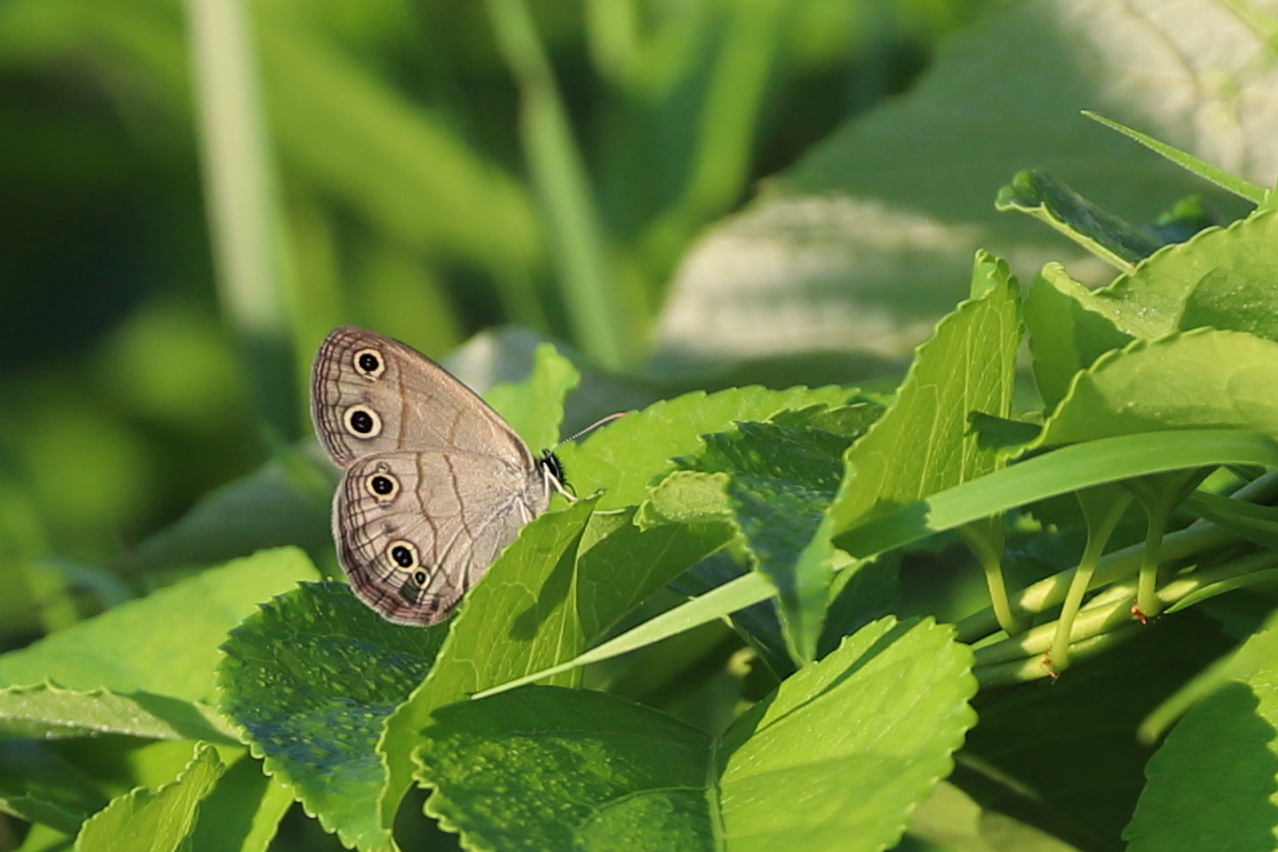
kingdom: Animalia
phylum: Arthropoda
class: Insecta
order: Lepidoptera
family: Nymphalidae
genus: Euptychia
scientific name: Euptychia cymela
